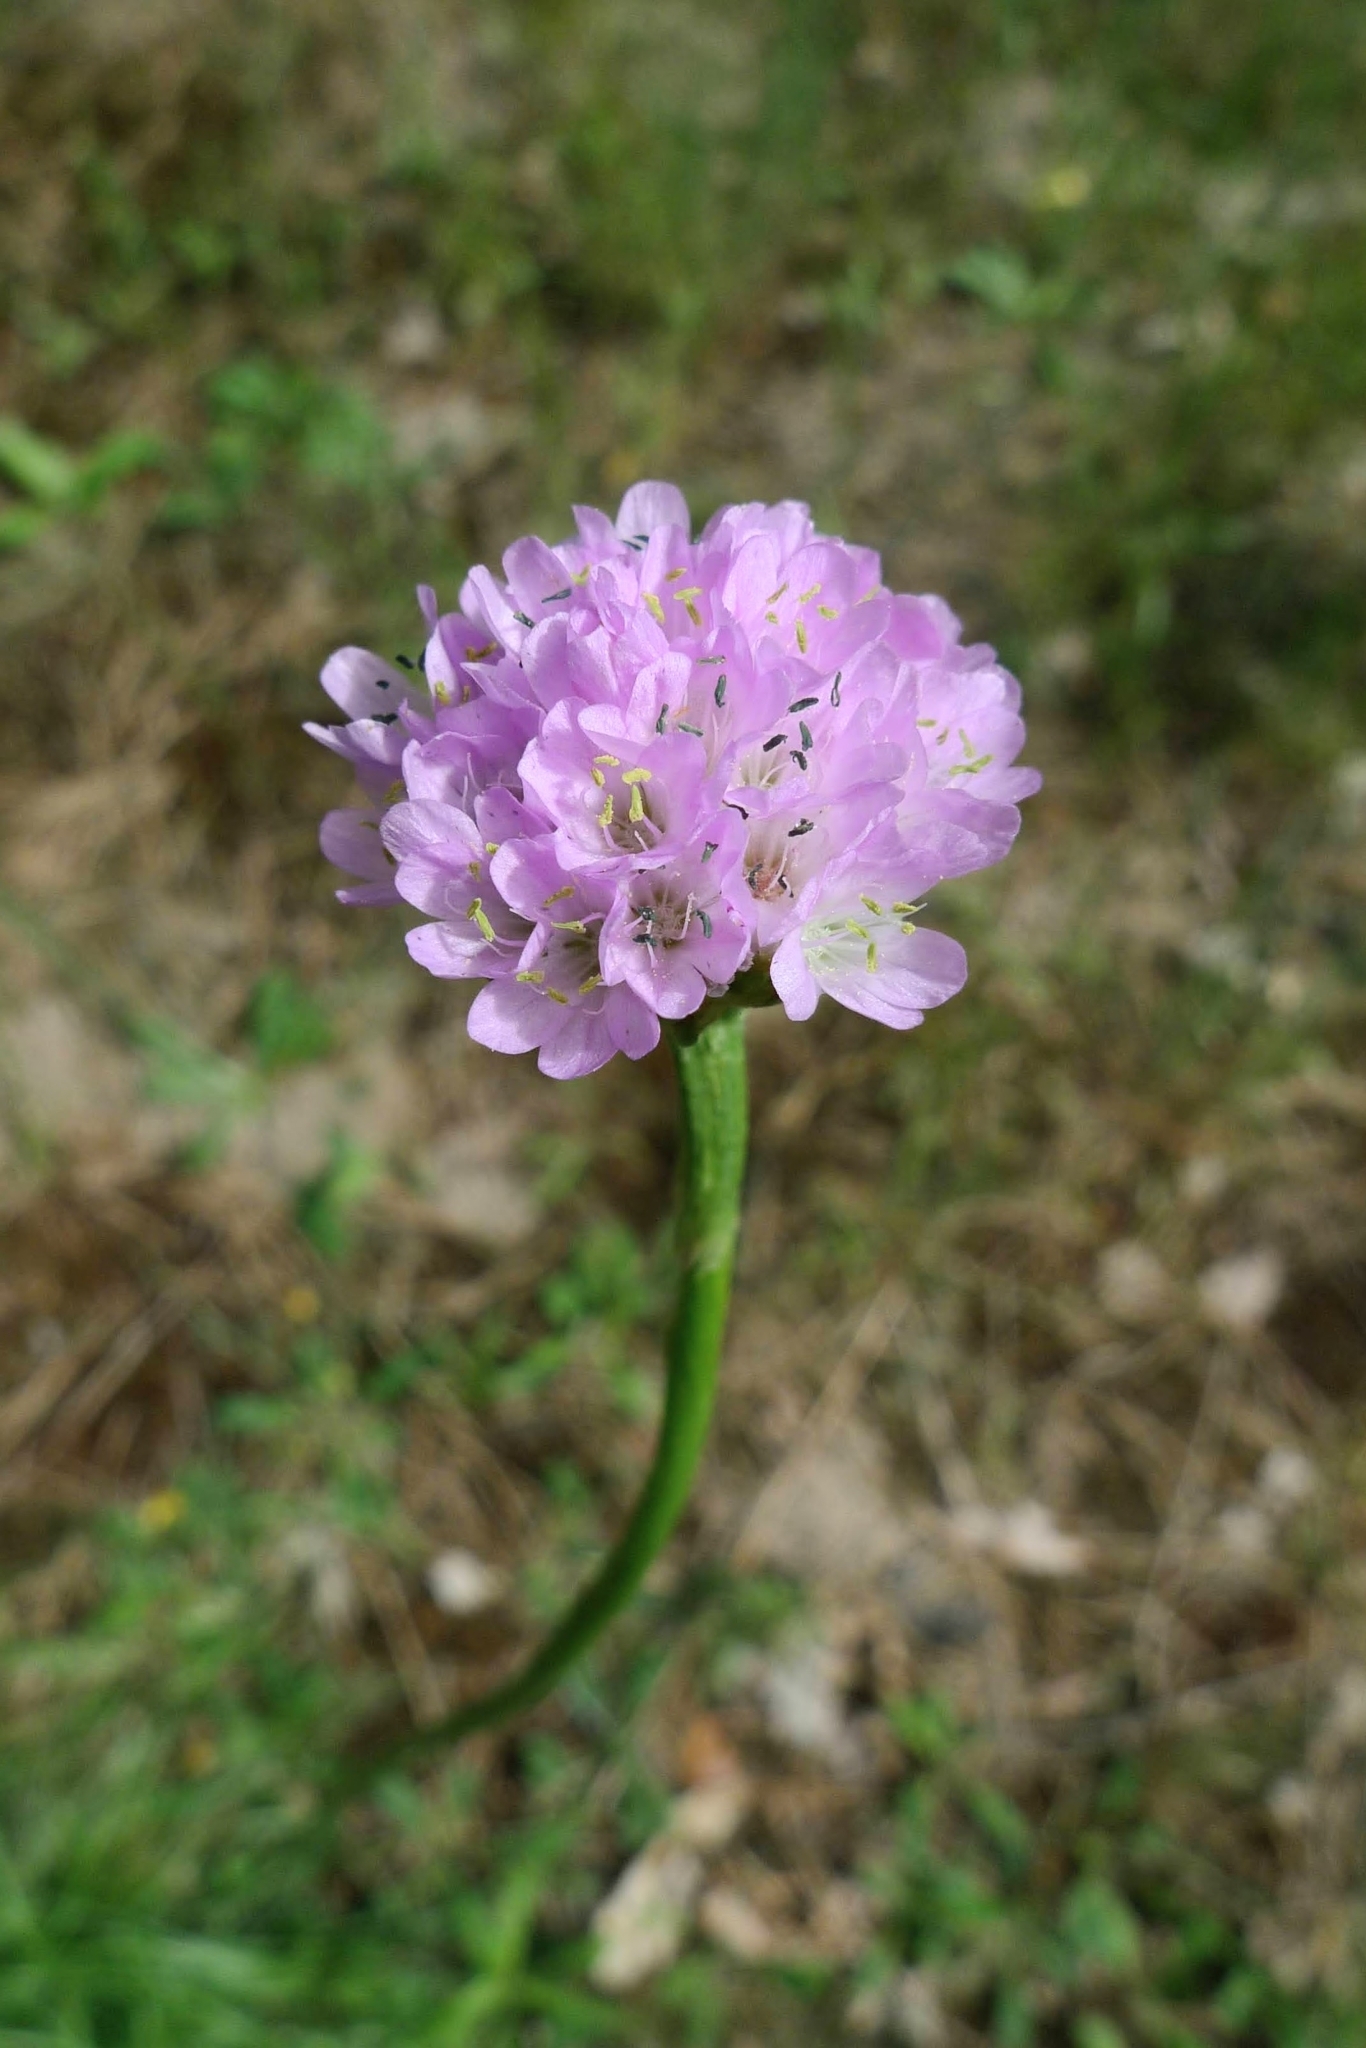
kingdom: Plantae
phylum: Tracheophyta
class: Magnoliopsida
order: Caryophyllales
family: Plumbaginaceae
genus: Armeria
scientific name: Armeria maritima
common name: Thrift
